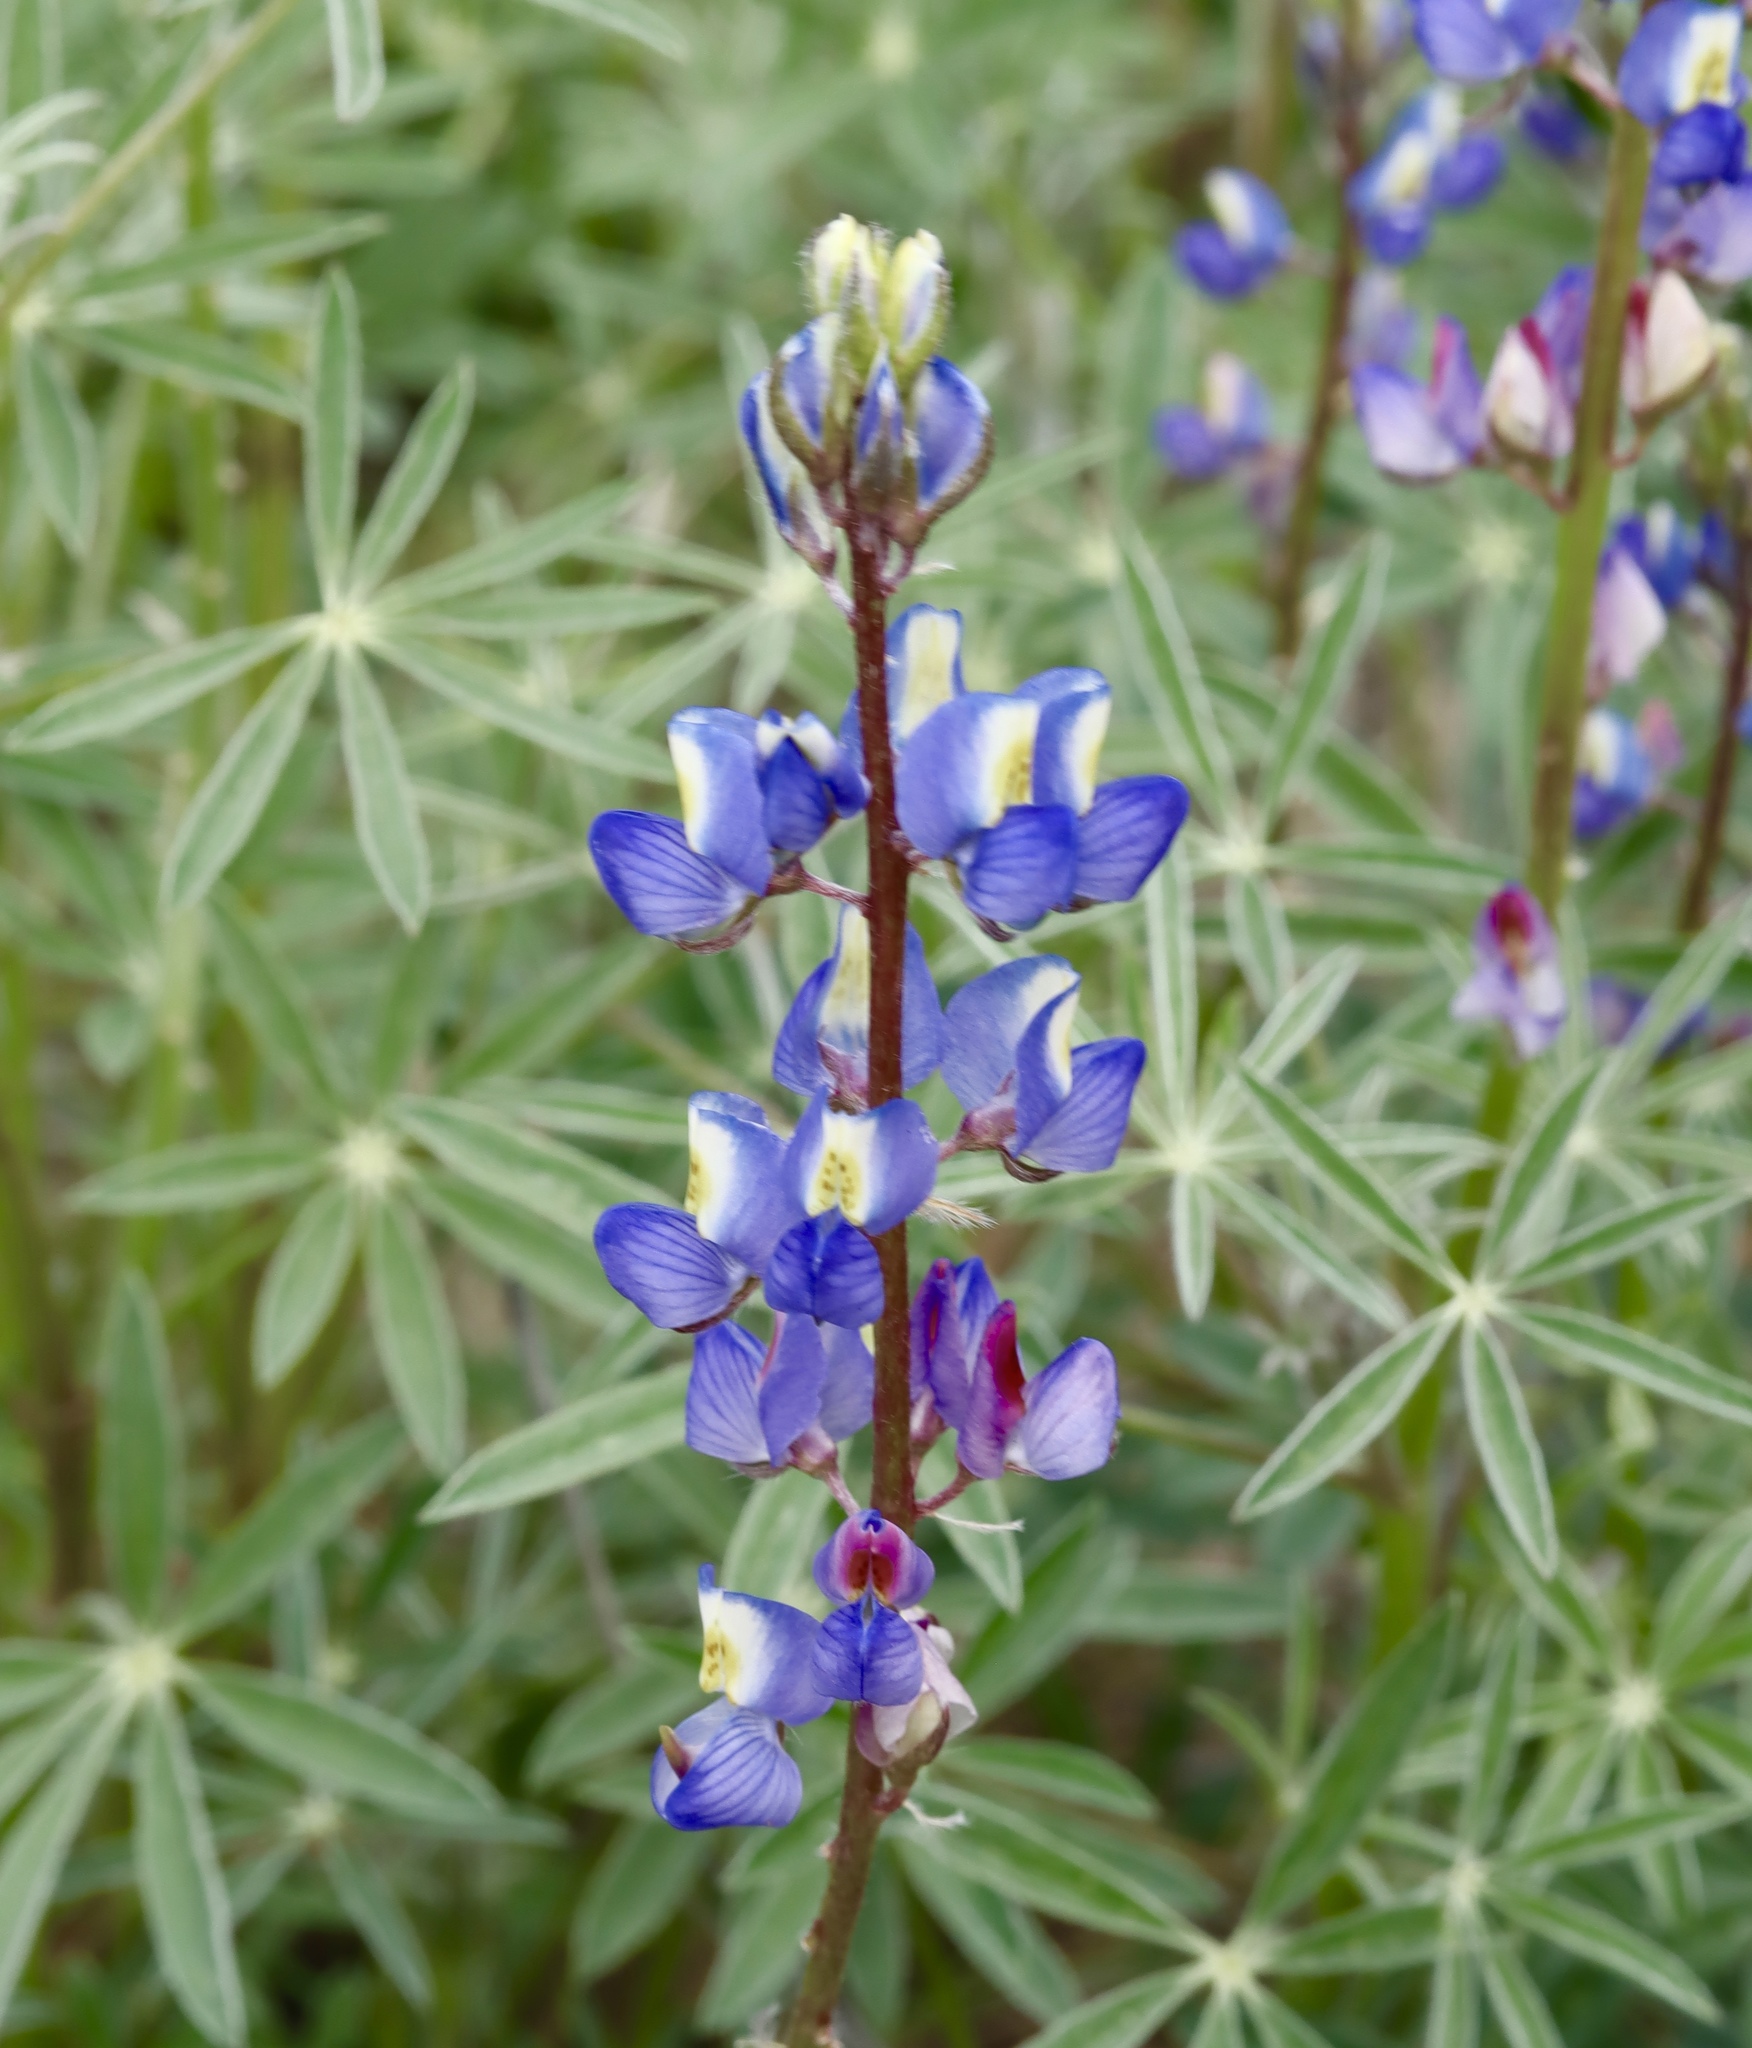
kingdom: Plantae
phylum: Tracheophyta
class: Magnoliopsida
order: Fabales
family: Fabaceae
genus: Lupinus
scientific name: Lupinus sparsiflorus
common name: Coulter's lupine
